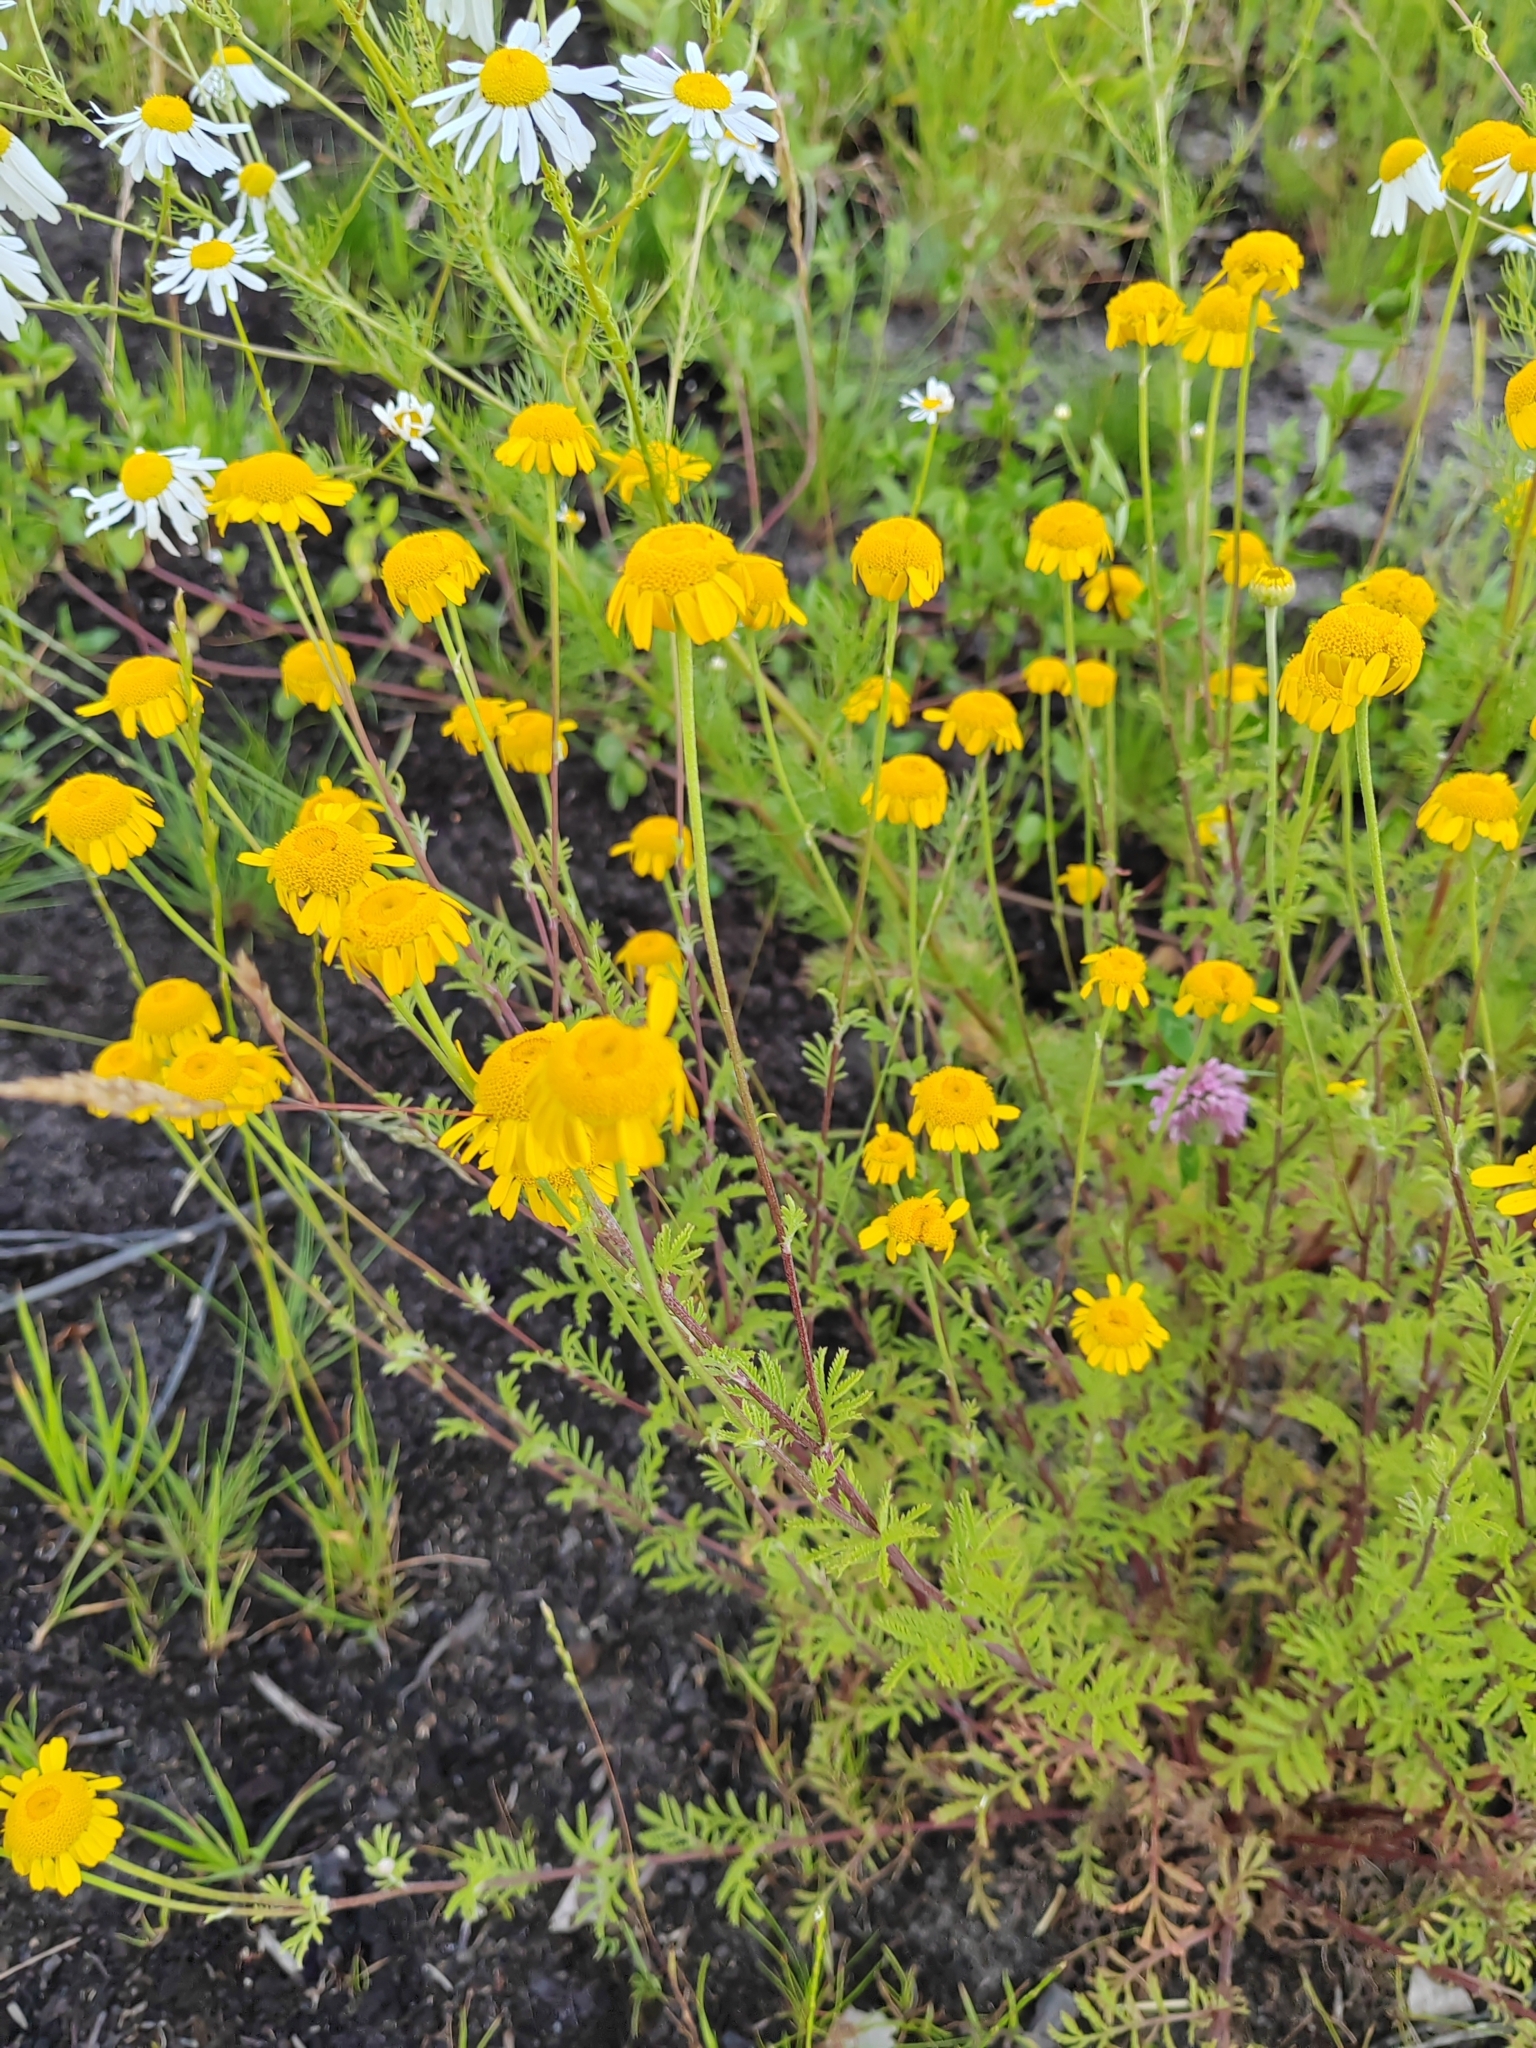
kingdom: Plantae
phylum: Tracheophyta
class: Magnoliopsida
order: Asterales
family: Asteraceae
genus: Cota
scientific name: Cota tinctoria
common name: Golden chamomile
